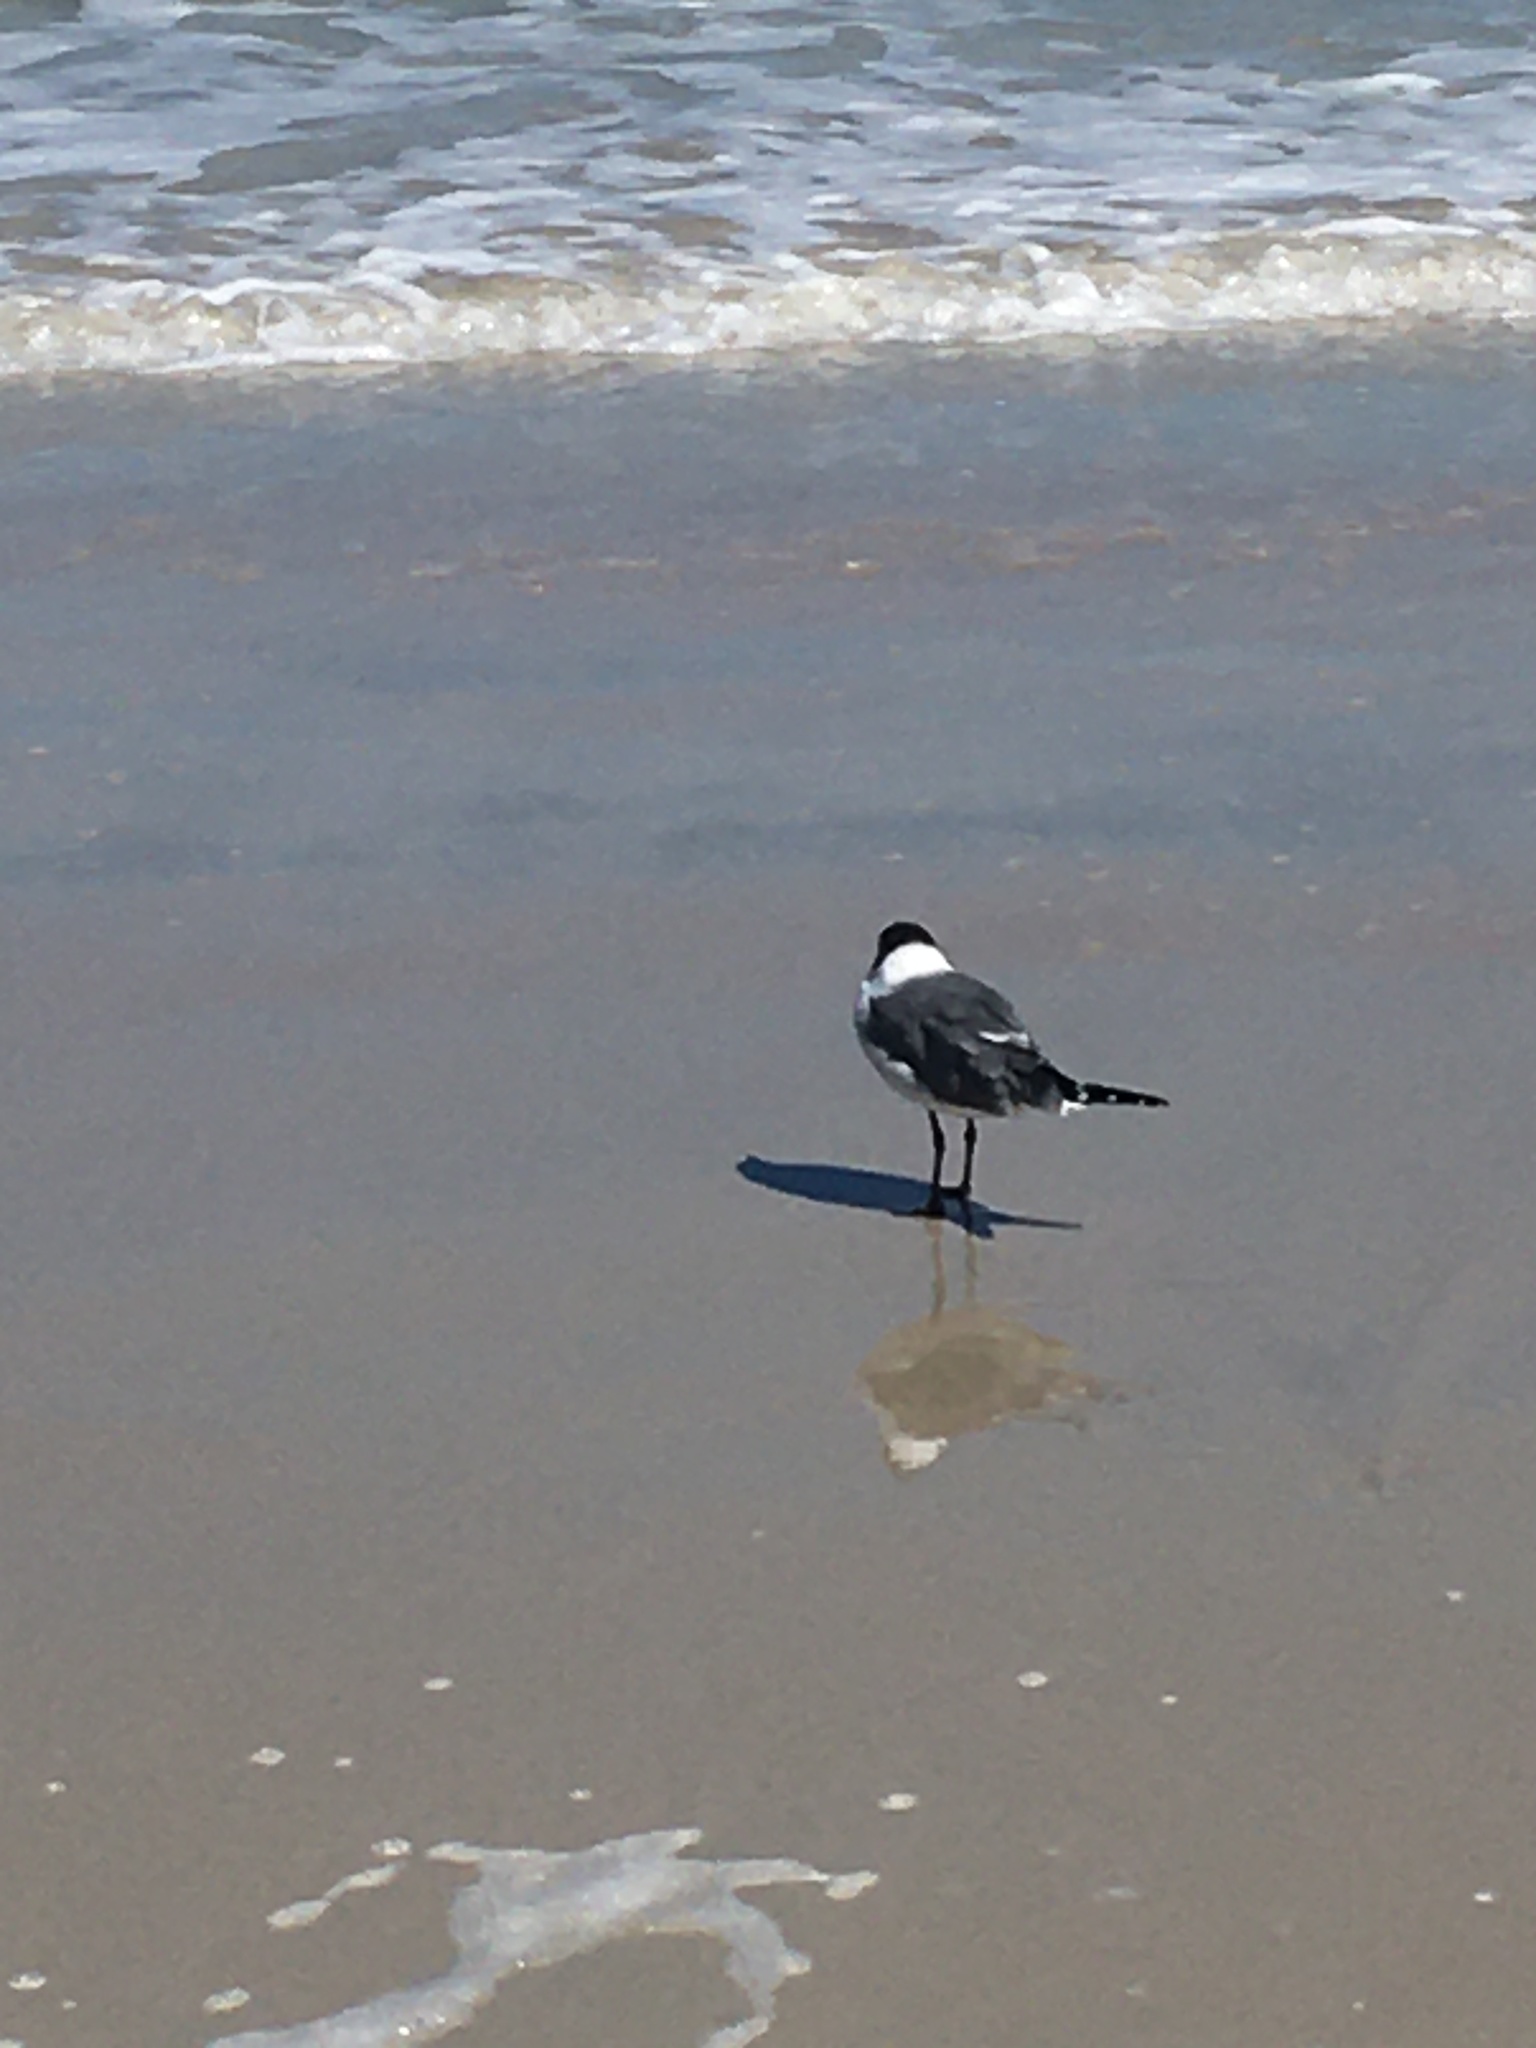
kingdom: Animalia
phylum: Chordata
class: Aves
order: Charadriiformes
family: Laridae
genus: Leucophaeus
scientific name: Leucophaeus atricilla
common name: Laughing gull
